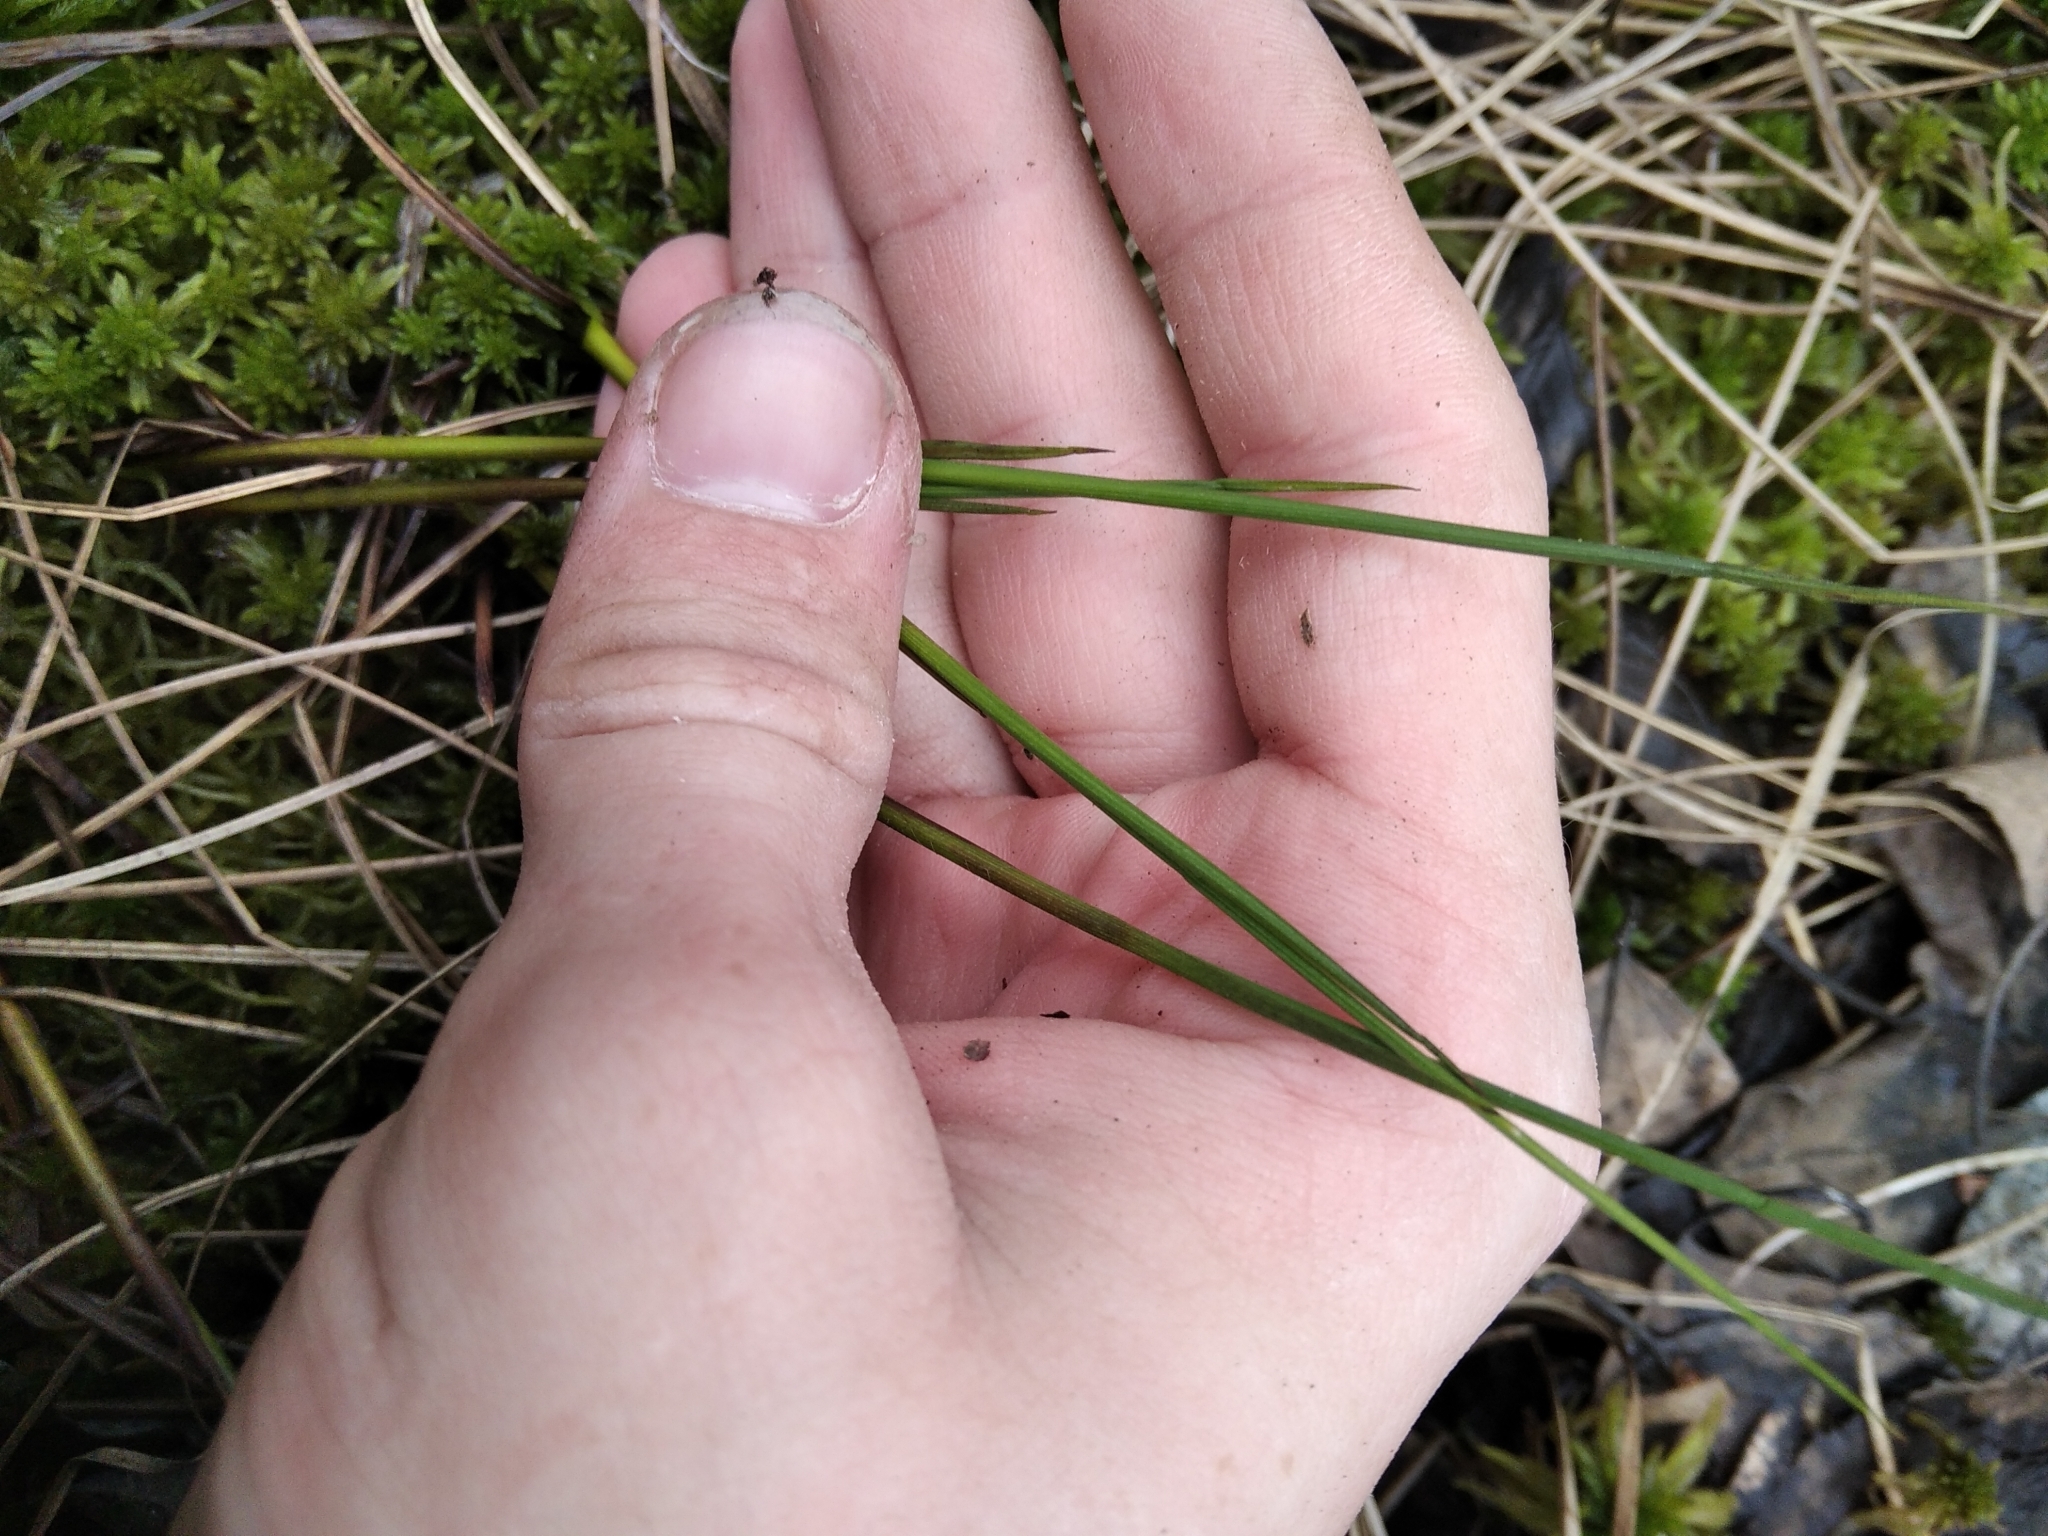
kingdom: Plantae
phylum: Tracheophyta
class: Liliopsida
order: Alismatales
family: Scheuchzeriaceae
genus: Scheuchzeria
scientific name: Scheuchzeria palustris
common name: Rannoch-rush
